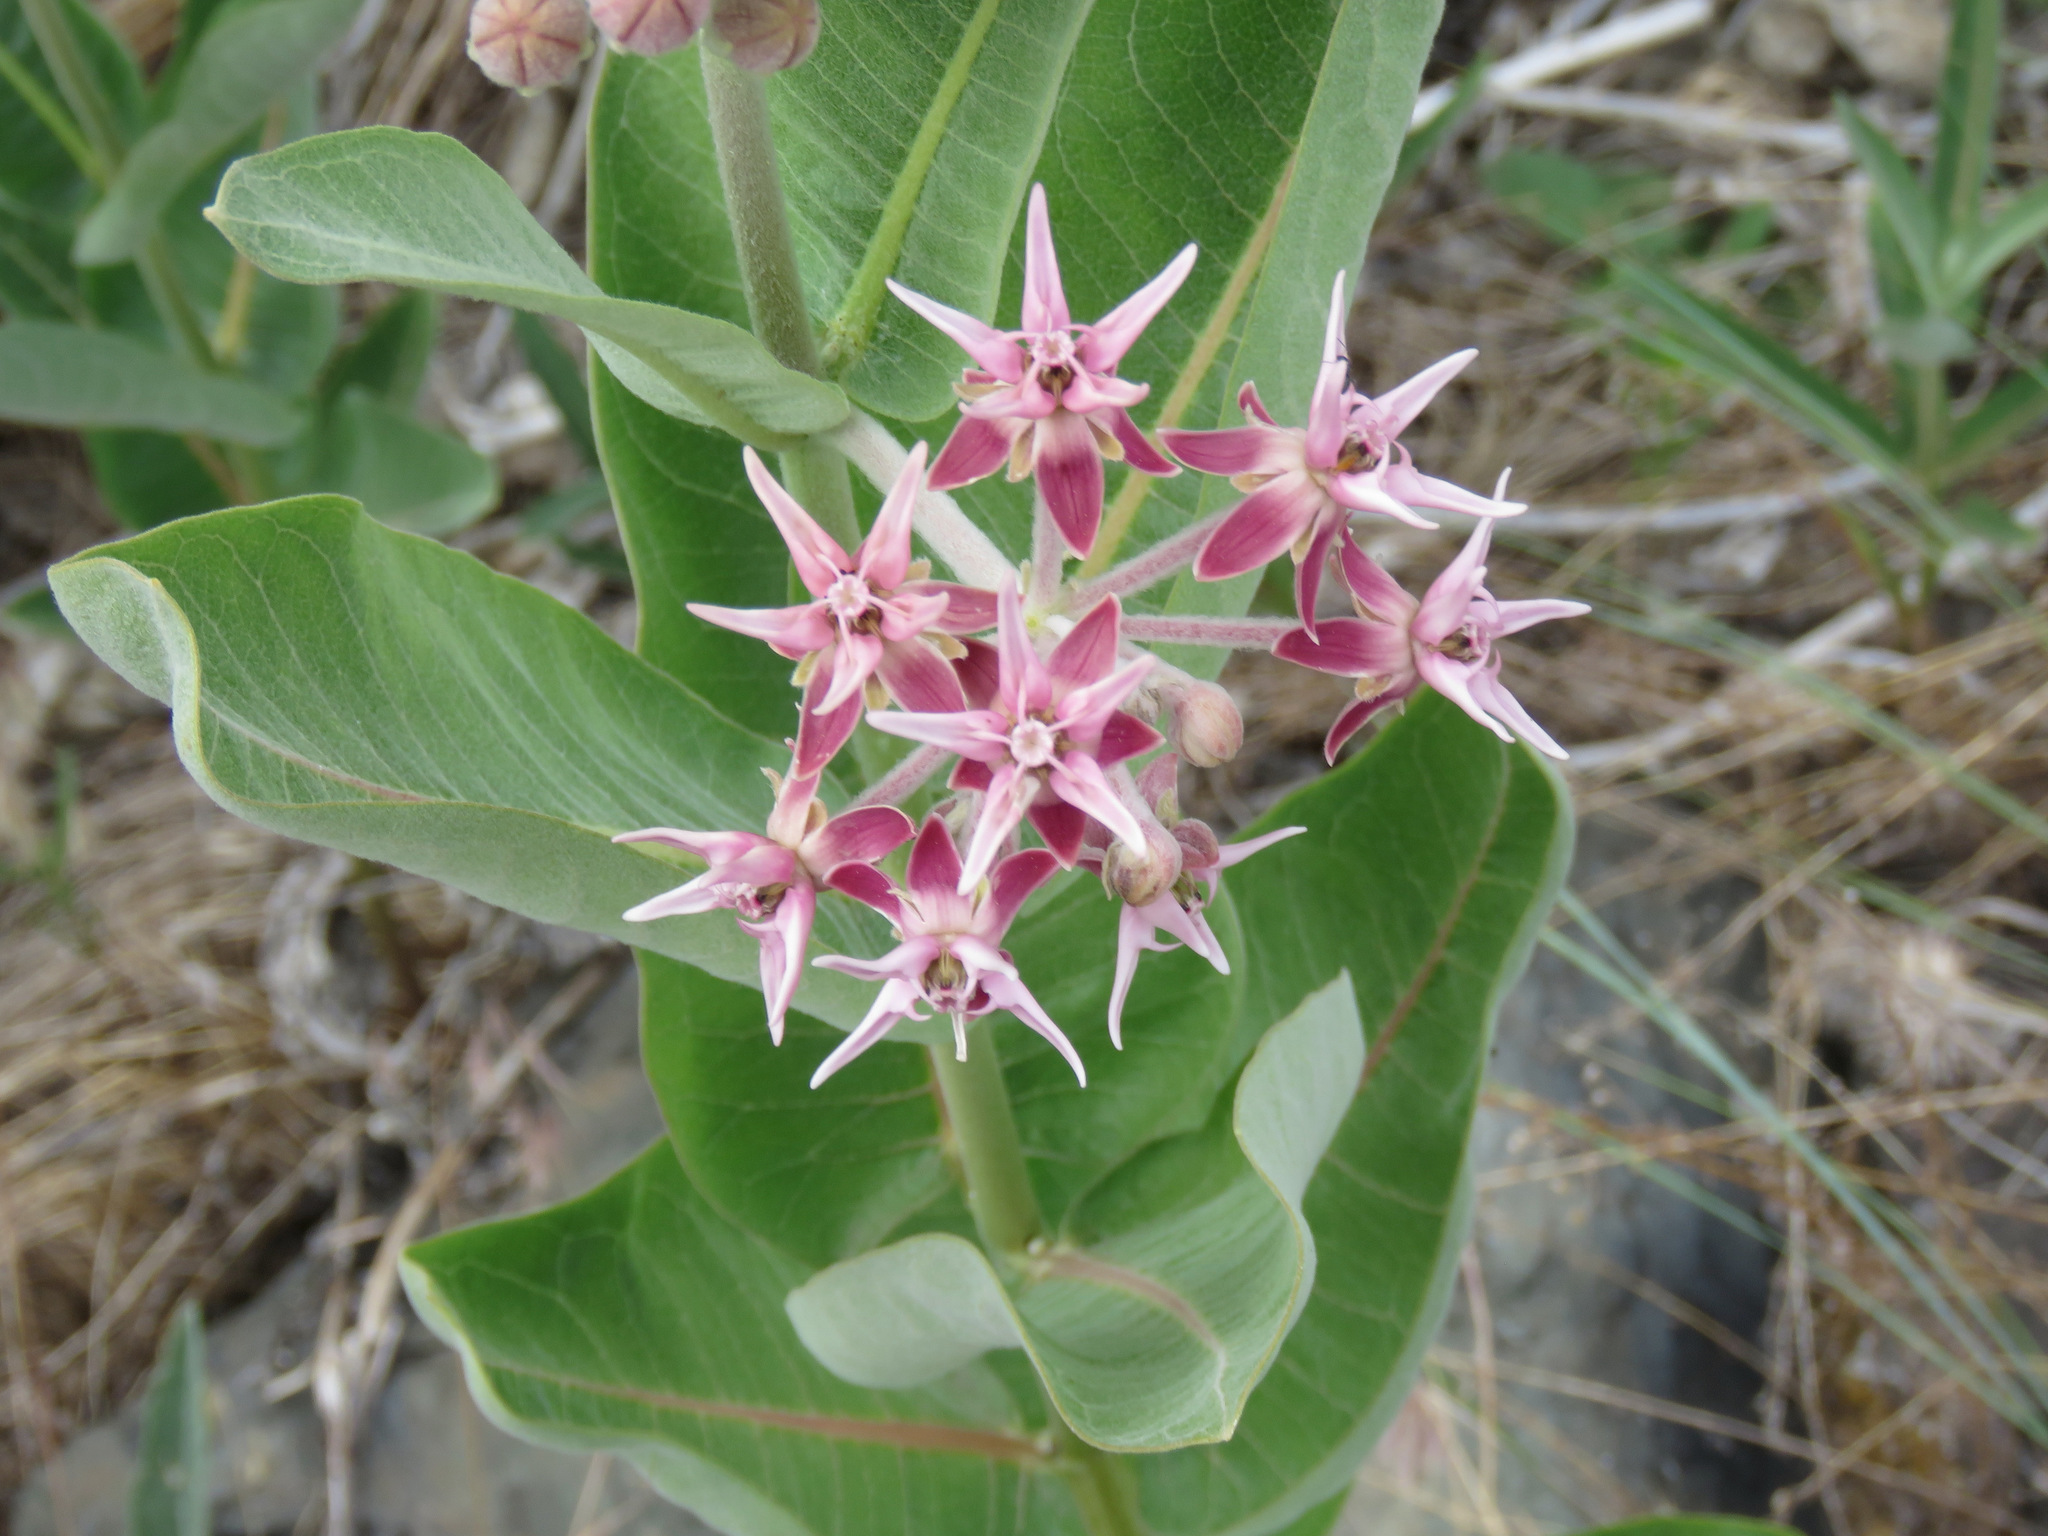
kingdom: Plantae
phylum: Tracheophyta
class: Magnoliopsida
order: Gentianales
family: Apocynaceae
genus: Asclepias
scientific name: Asclepias speciosa
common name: Showy milkweed
